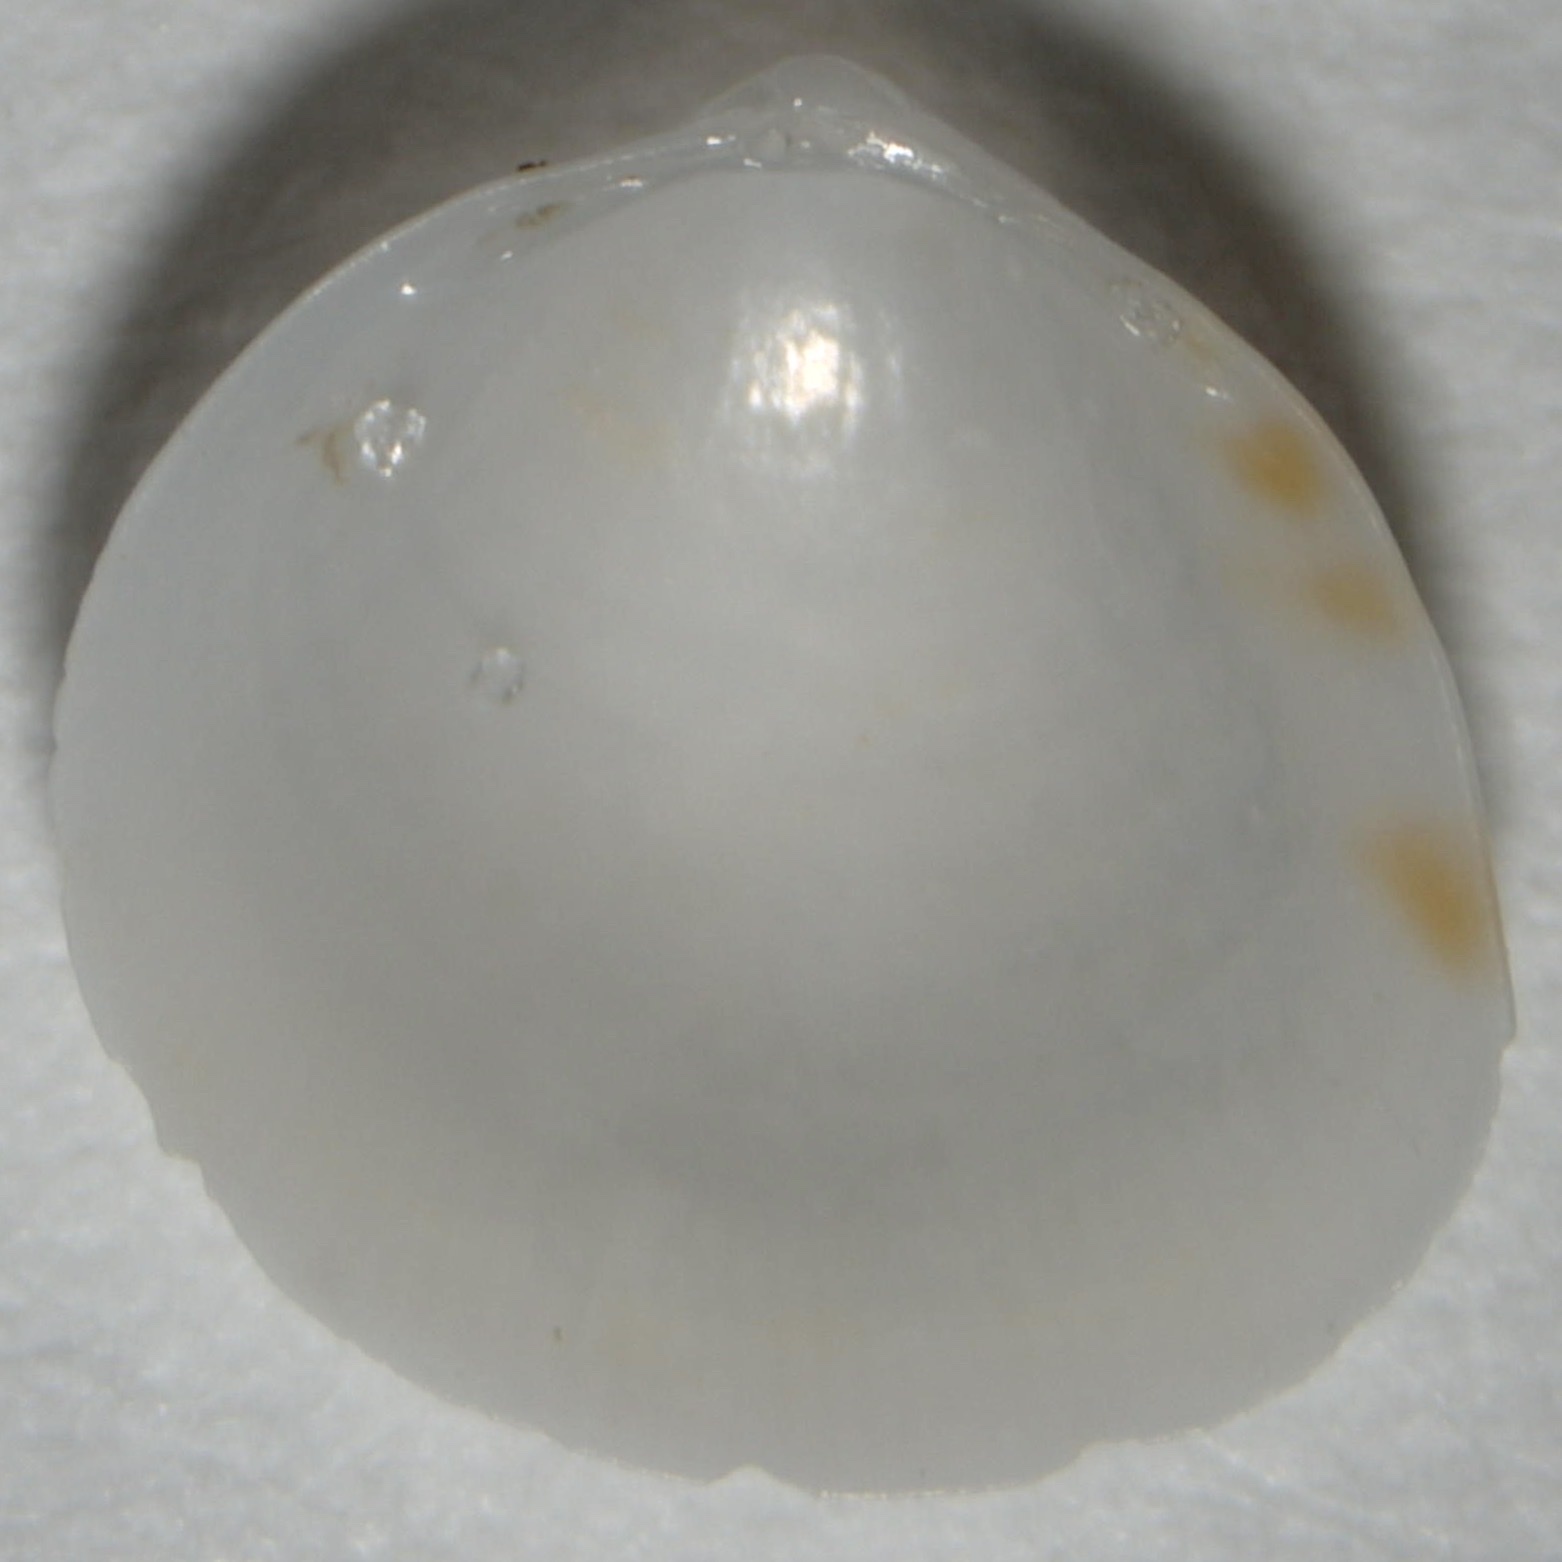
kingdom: Animalia
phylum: Mollusca
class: Bivalvia
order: Cardiida
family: Cardiidae
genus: Laevicardium
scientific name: Laevicardium mortoni
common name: Morton eggcockle
